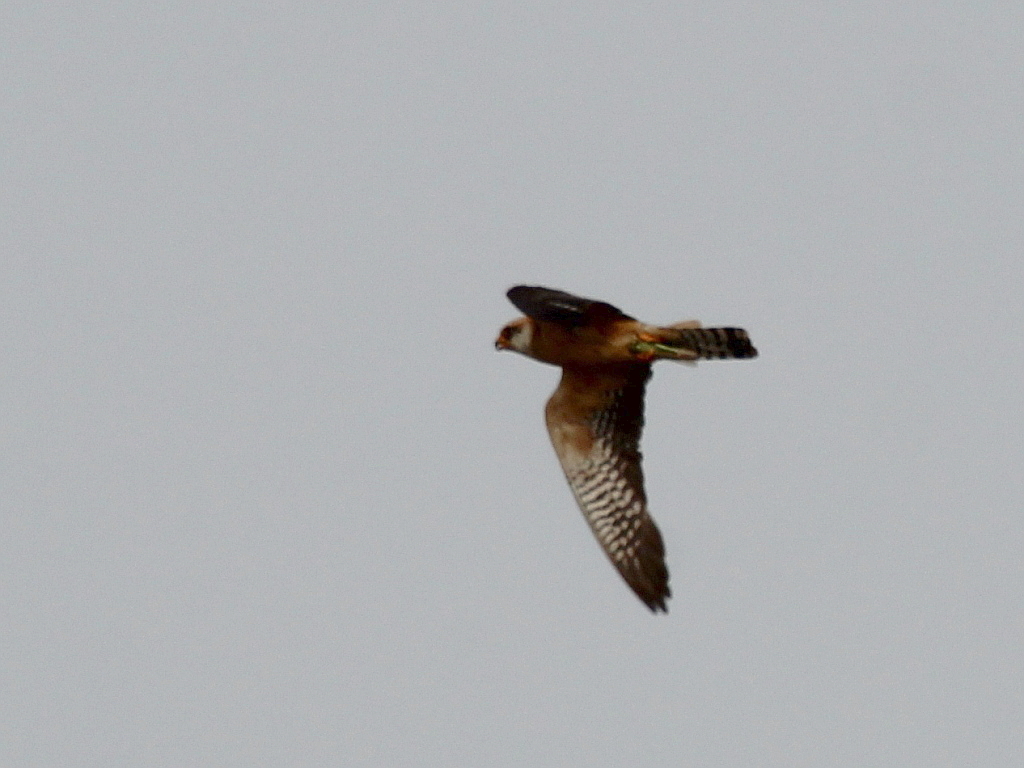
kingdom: Animalia
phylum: Chordata
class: Aves
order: Falconiformes
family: Falconidae
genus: Falco
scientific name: Falco vespertinus
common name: Red-footed falcon
